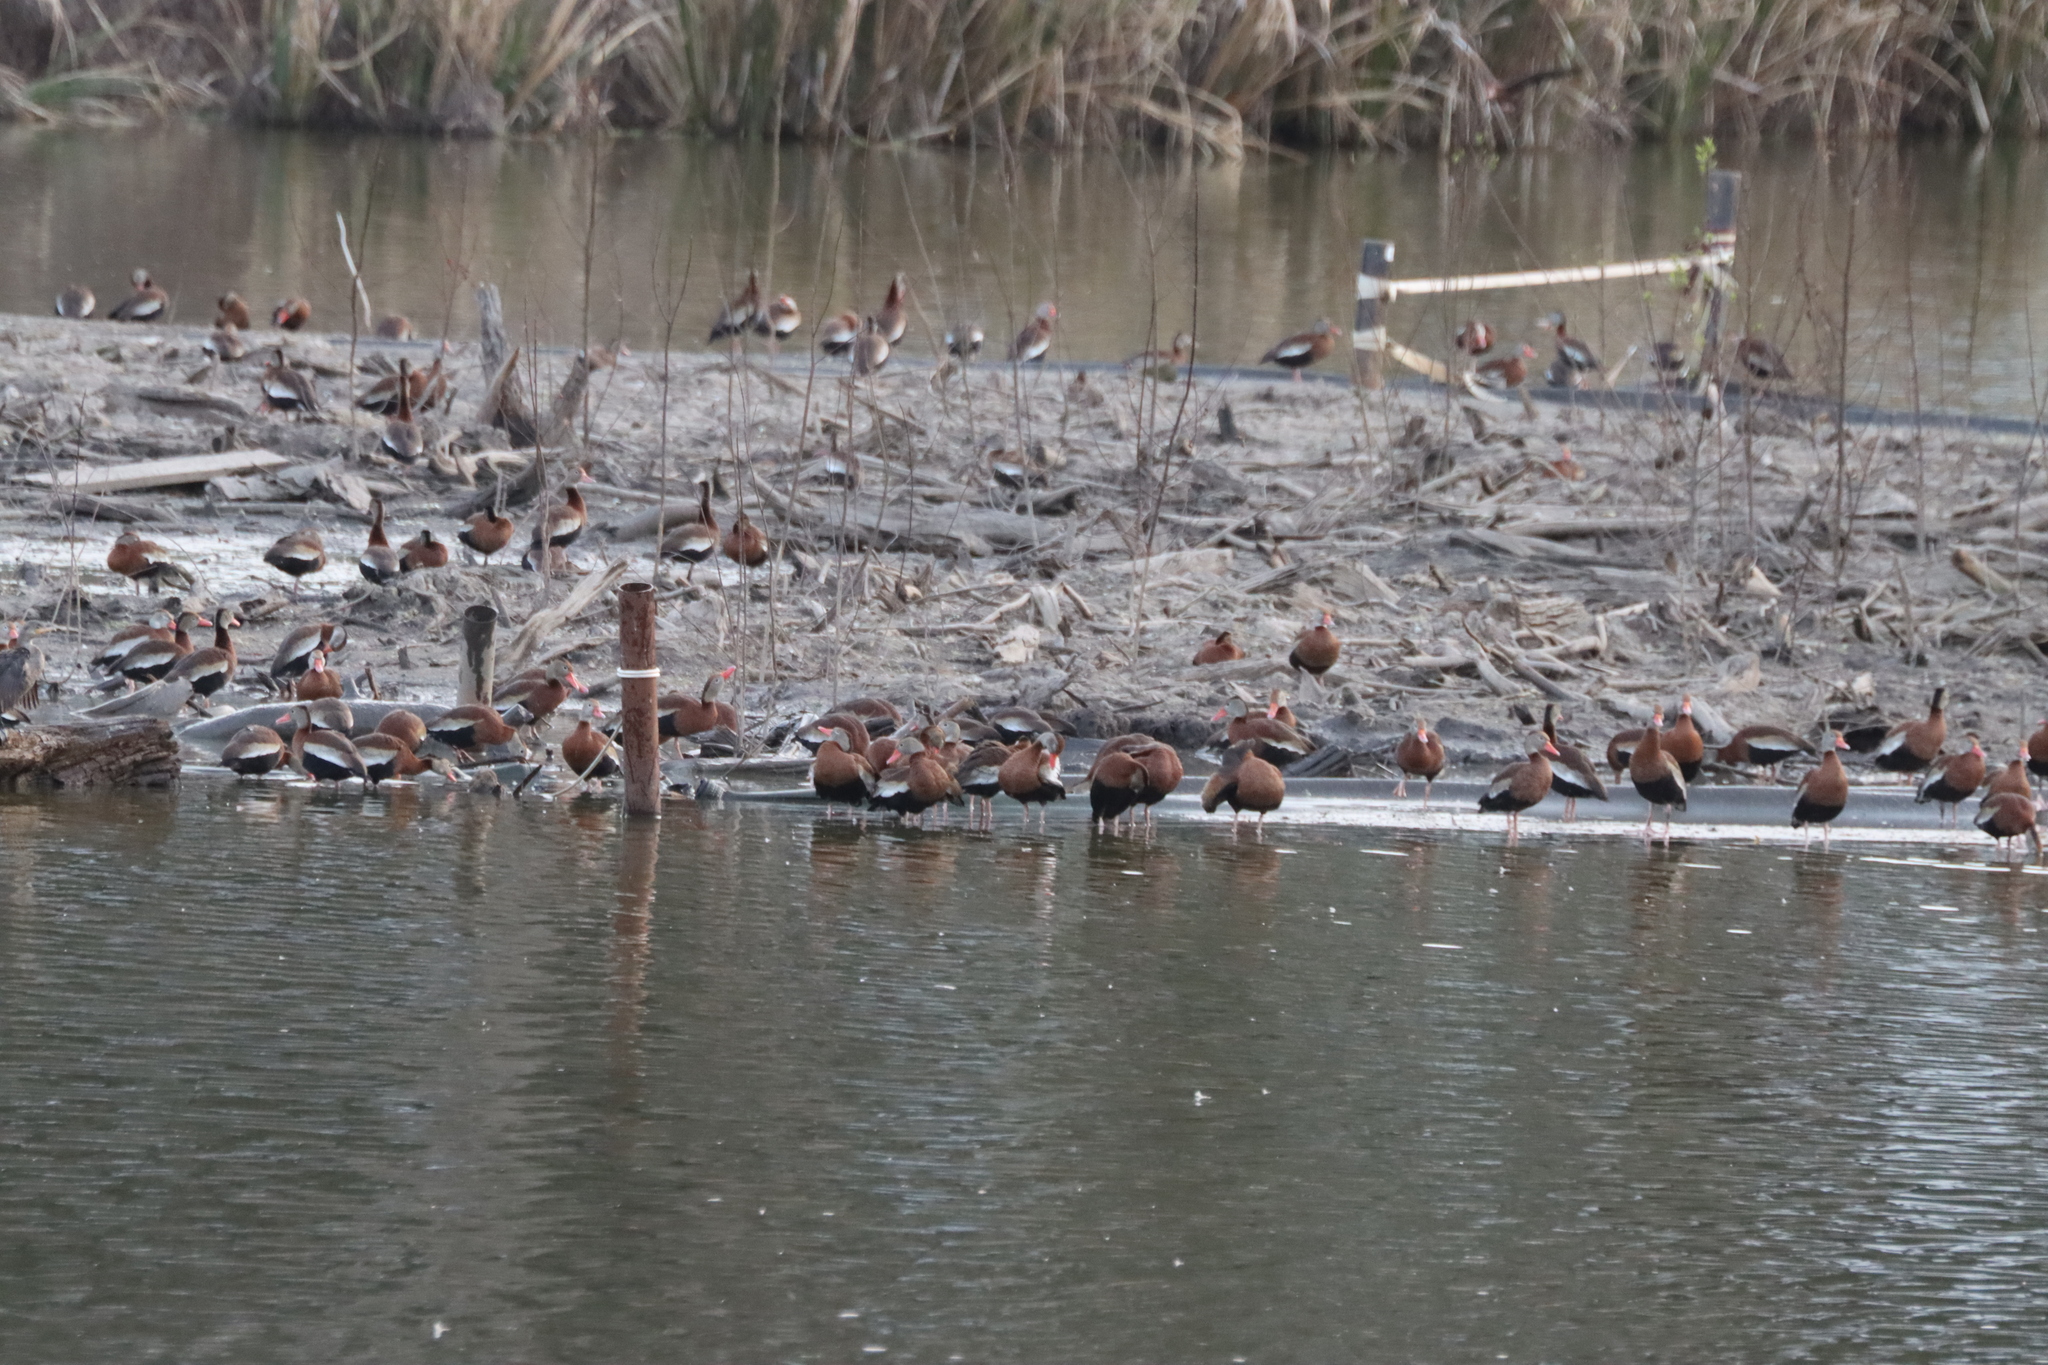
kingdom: Animalia
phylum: Chordata
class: Aves
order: Anseriformes
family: Anatidae
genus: Dendrocygna
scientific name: Dendrocygna autumnalis
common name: Black-bellied whistling duck
